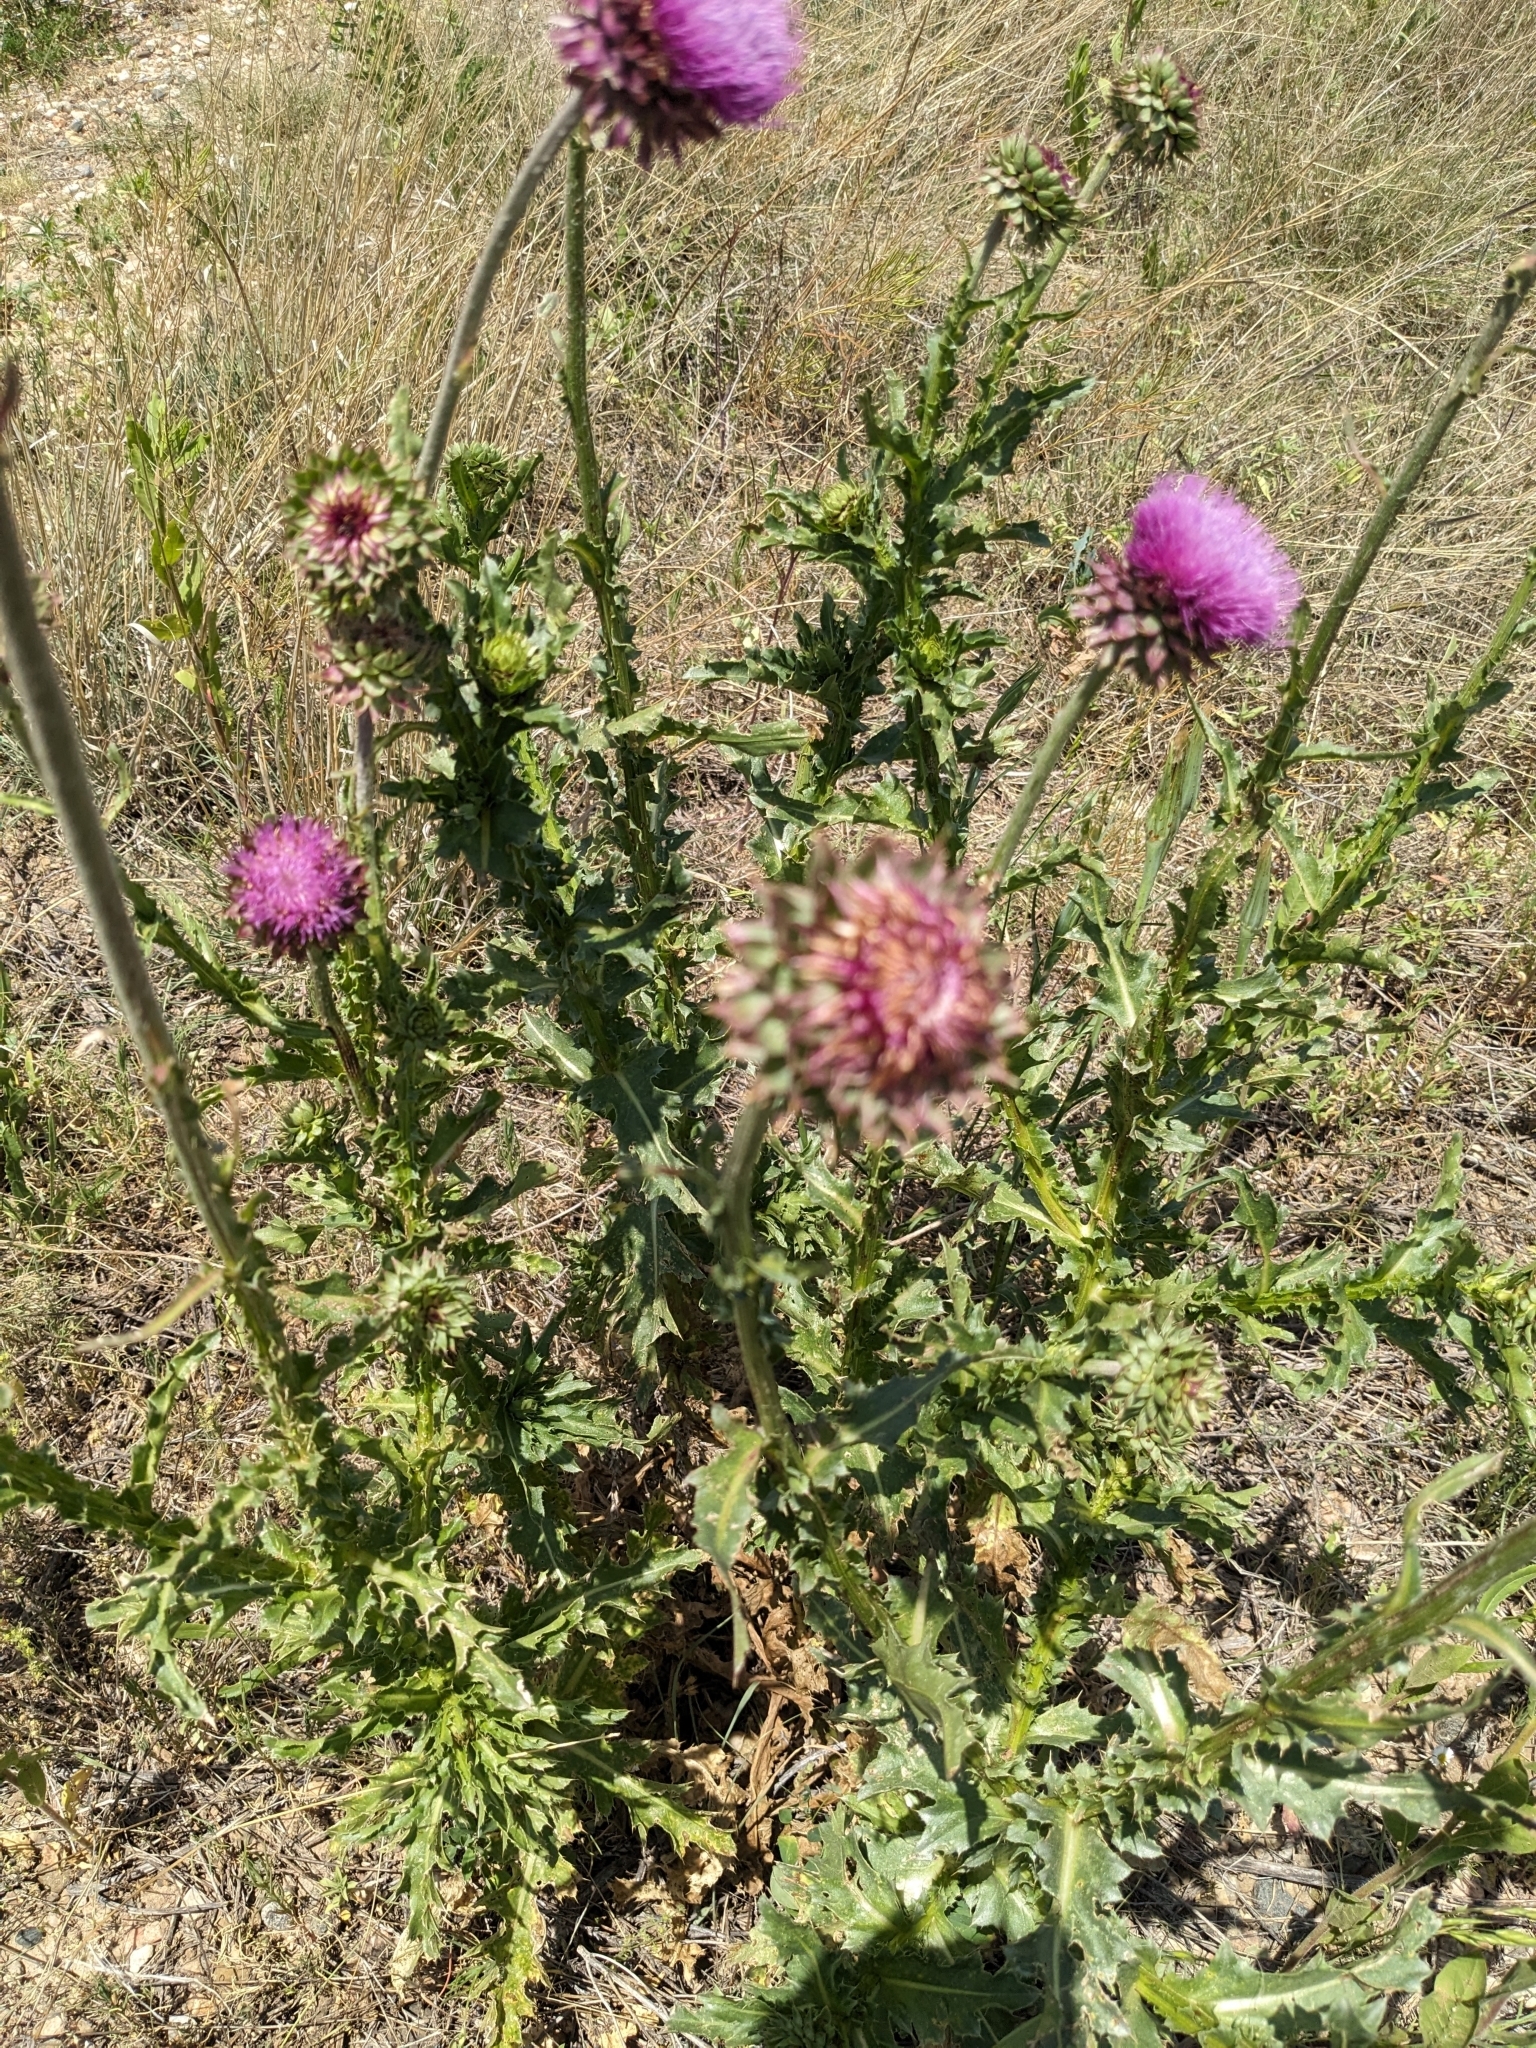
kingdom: Plantae
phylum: Tracheophyta
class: Magnoliopsida
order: Asterales
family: Asteraceae
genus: Carduus
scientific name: Carduus nutans
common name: Musk thistle
